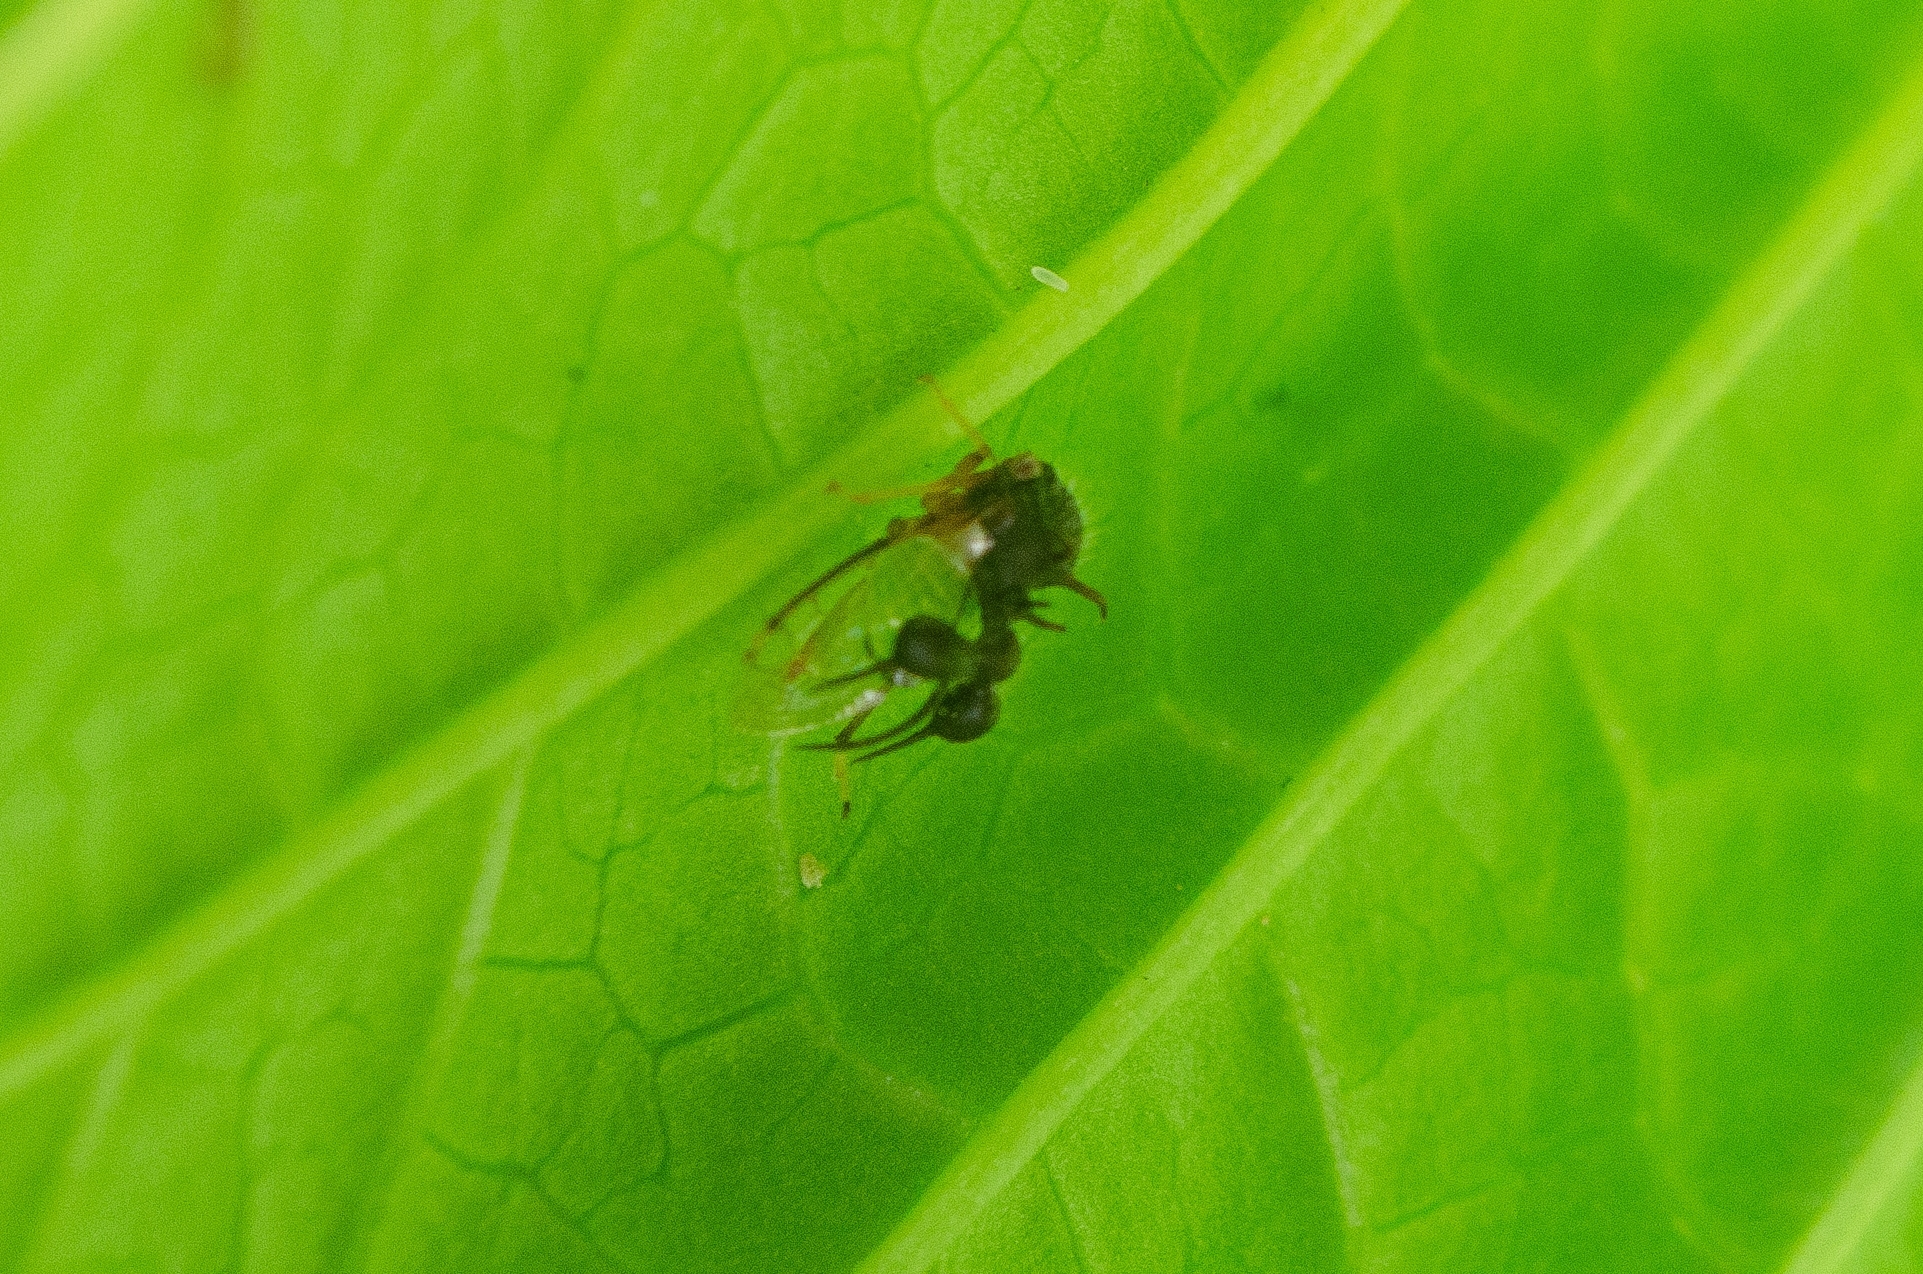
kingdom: Animalia
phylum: Arthropoda
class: Insecta
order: Hemiptera
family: Membracidae
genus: Cyphonia
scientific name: Cyphonia clavata
